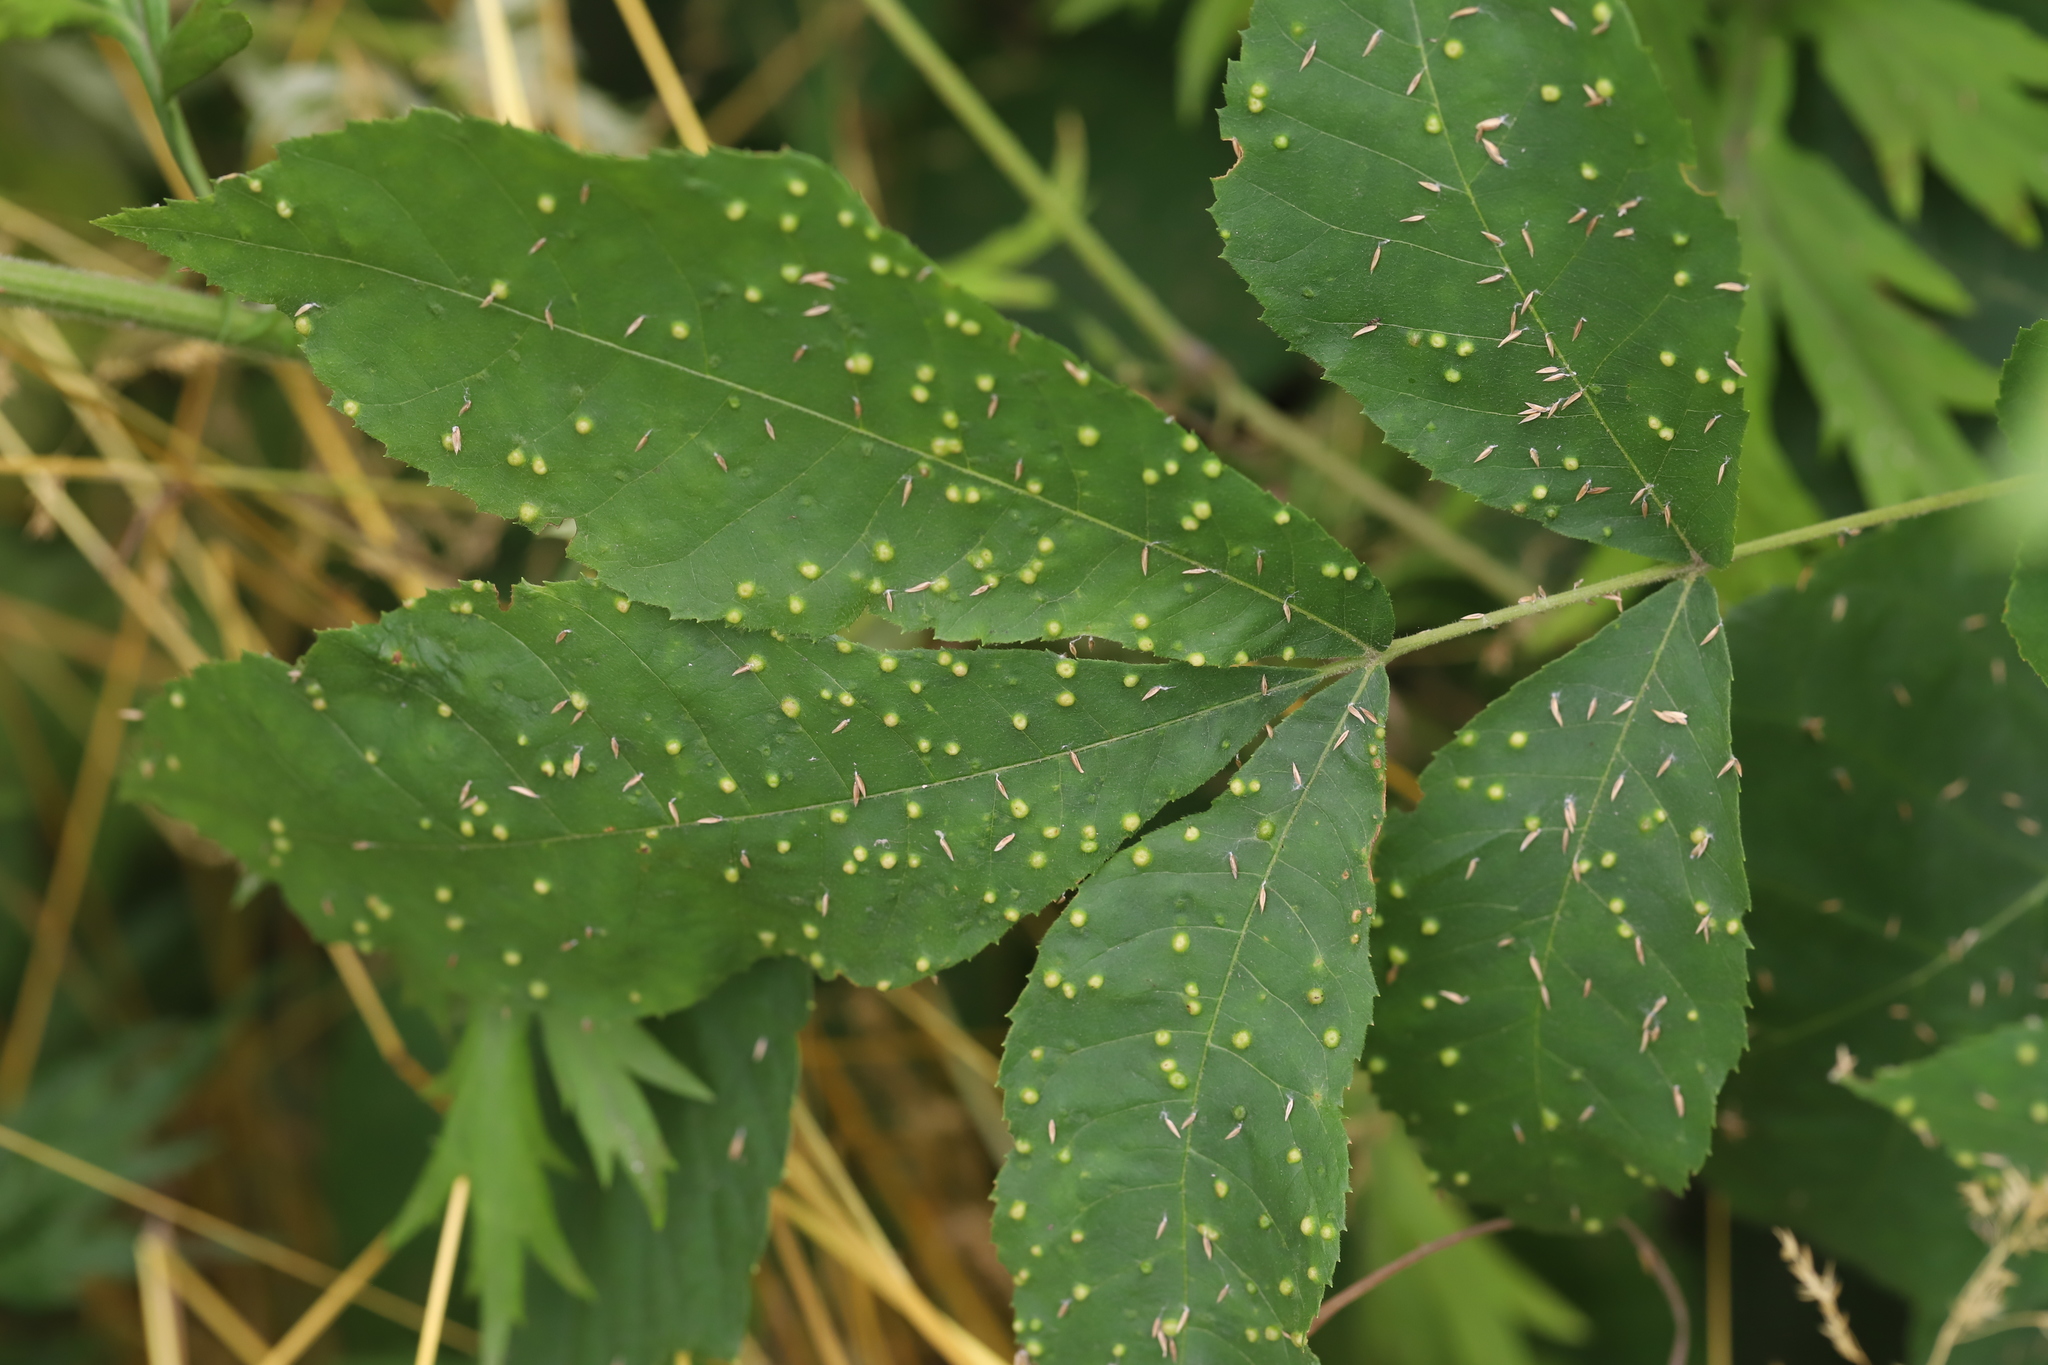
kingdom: Animalia
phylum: Arthropoda
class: Insecta
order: Hemiptera
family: Phylloxeridae
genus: Phylloxera
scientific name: Phylloxera caryae-semen
